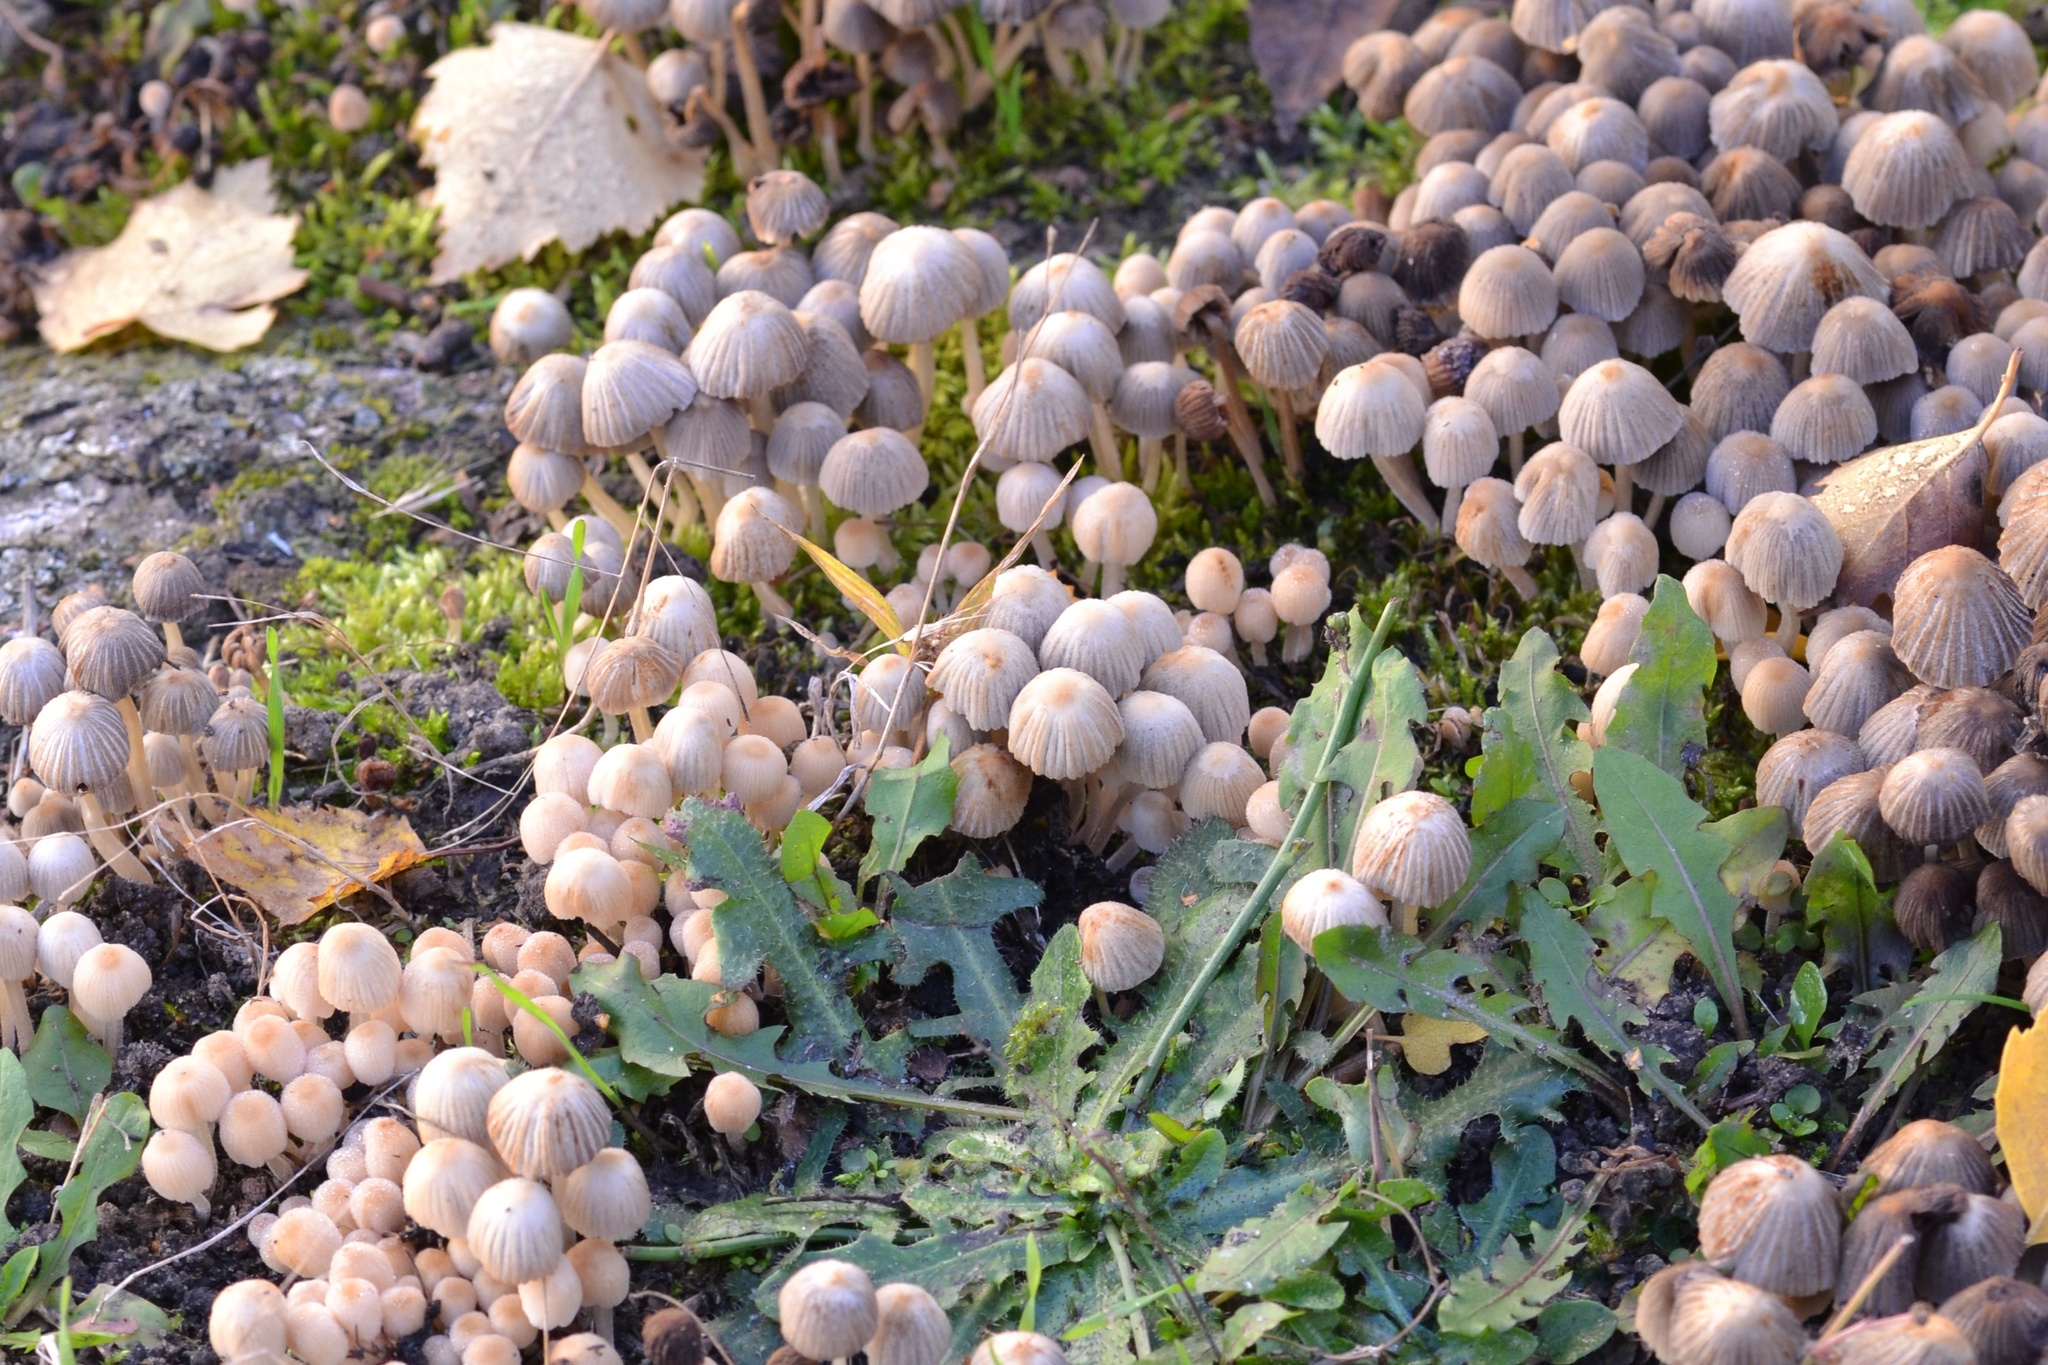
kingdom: Fungi
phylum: Basidiomycota
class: Agaricomycetes
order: Agaricales
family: Psathyrellaceae
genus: Coprinellus
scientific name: Coprinellus disseminatus
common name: Fairies' bonnets
